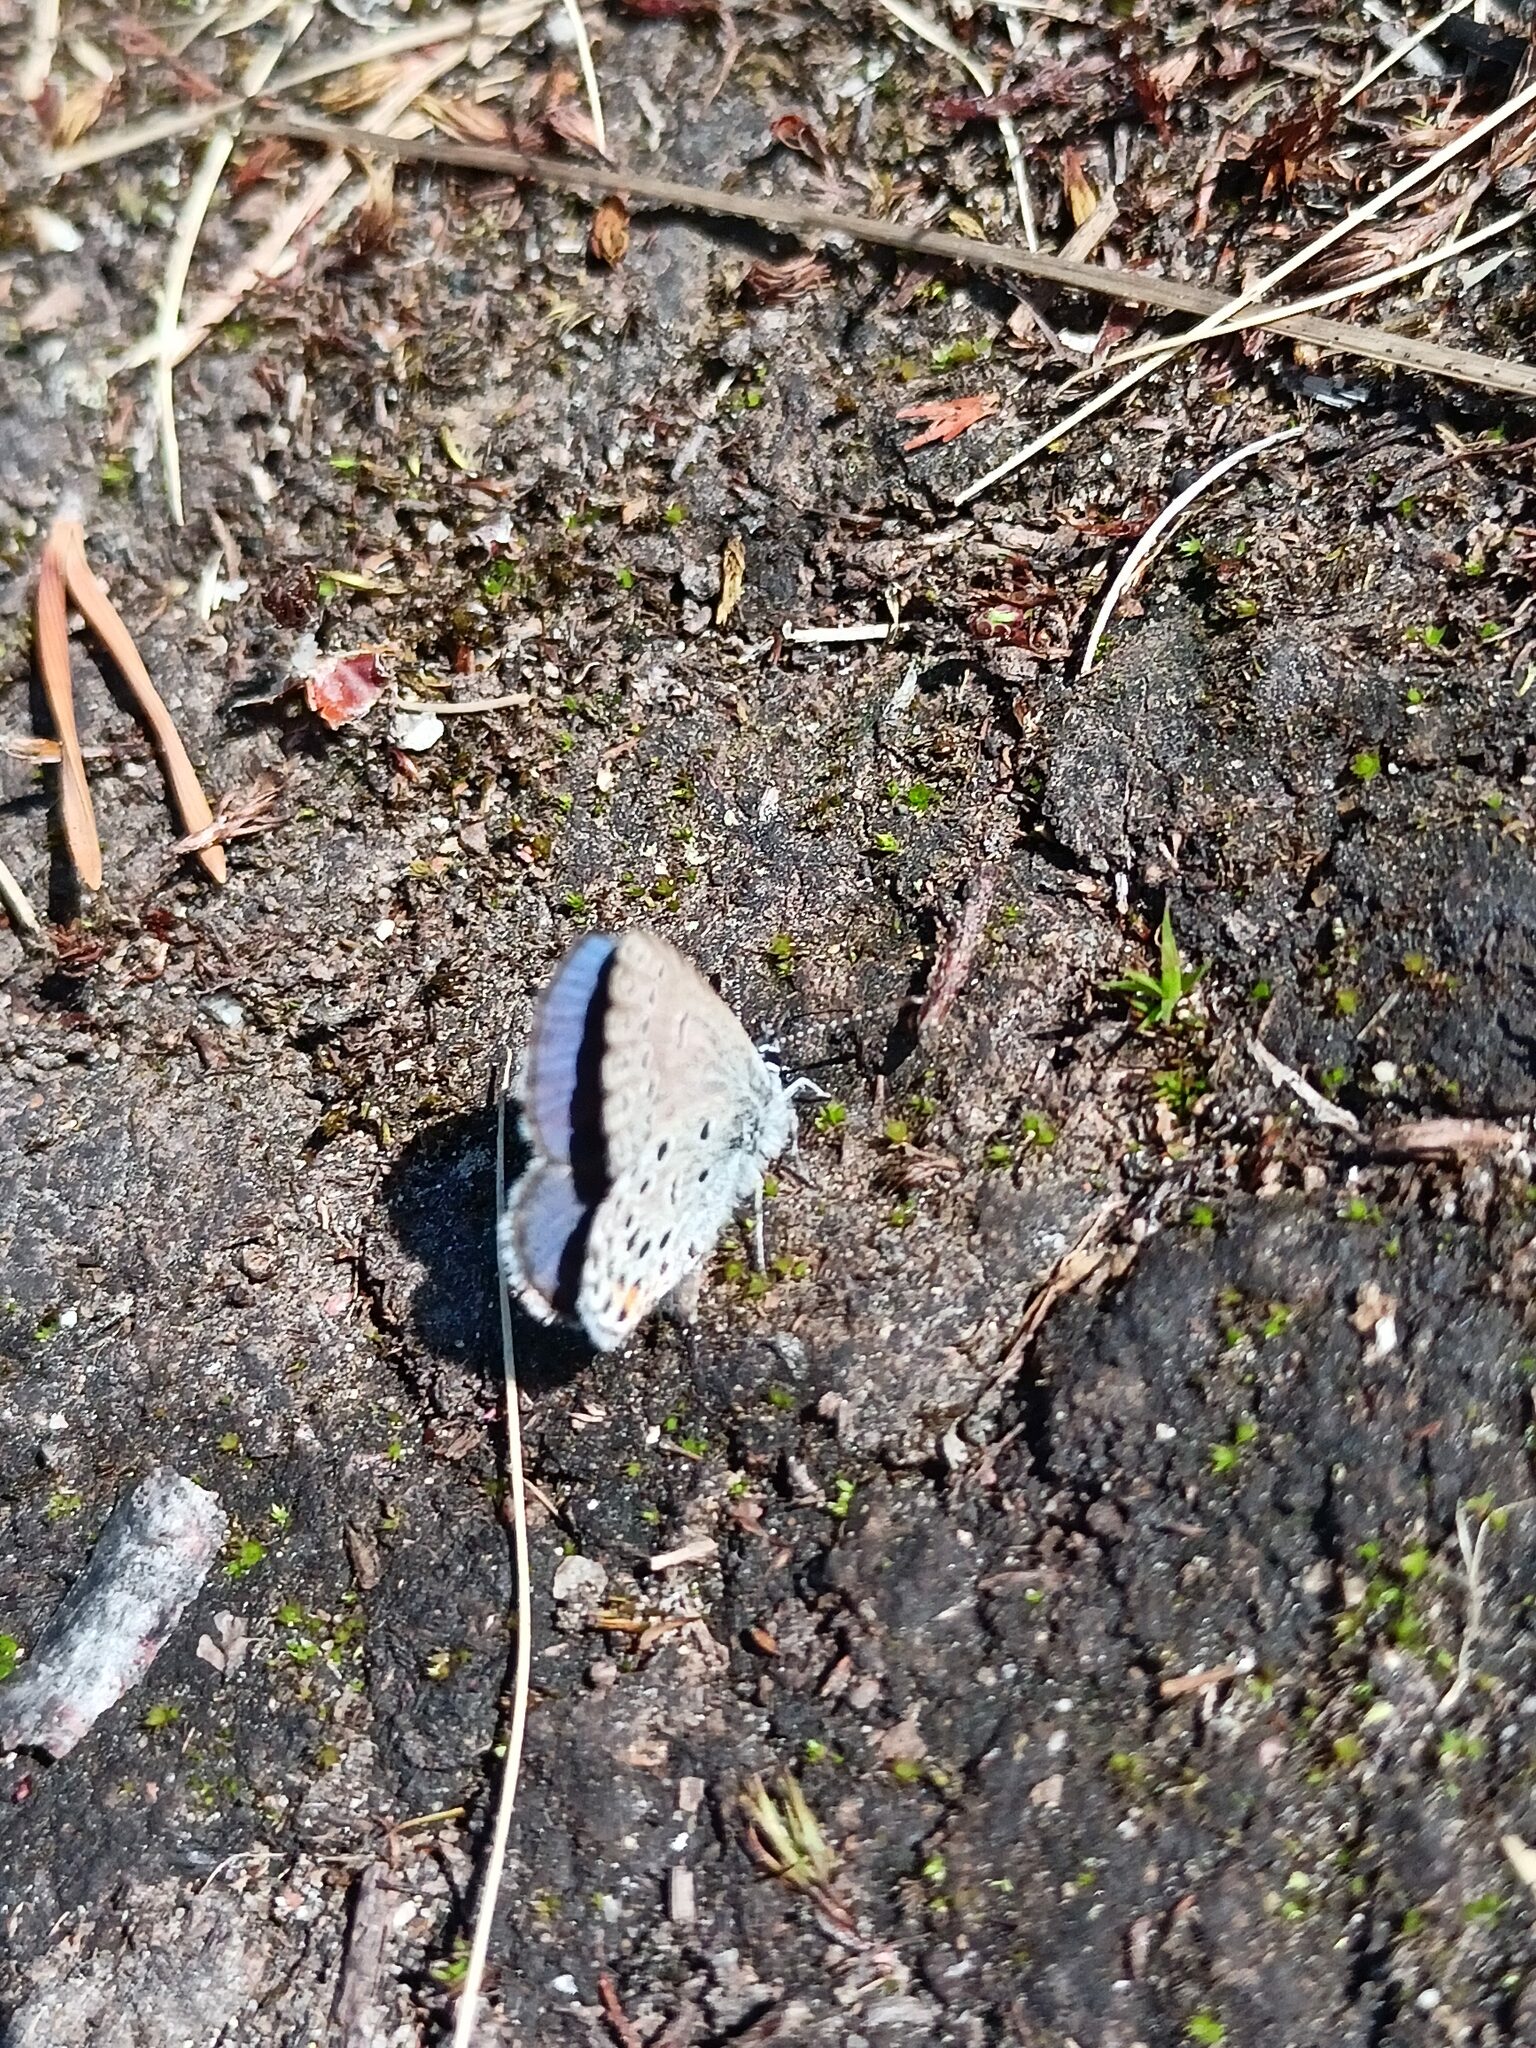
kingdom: Animalia
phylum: Arthropoda
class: Insecta
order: Lepidoptera
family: Lycaenidae
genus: Vacciniina
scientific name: Vacciniina optilete
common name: Cranberry blue
